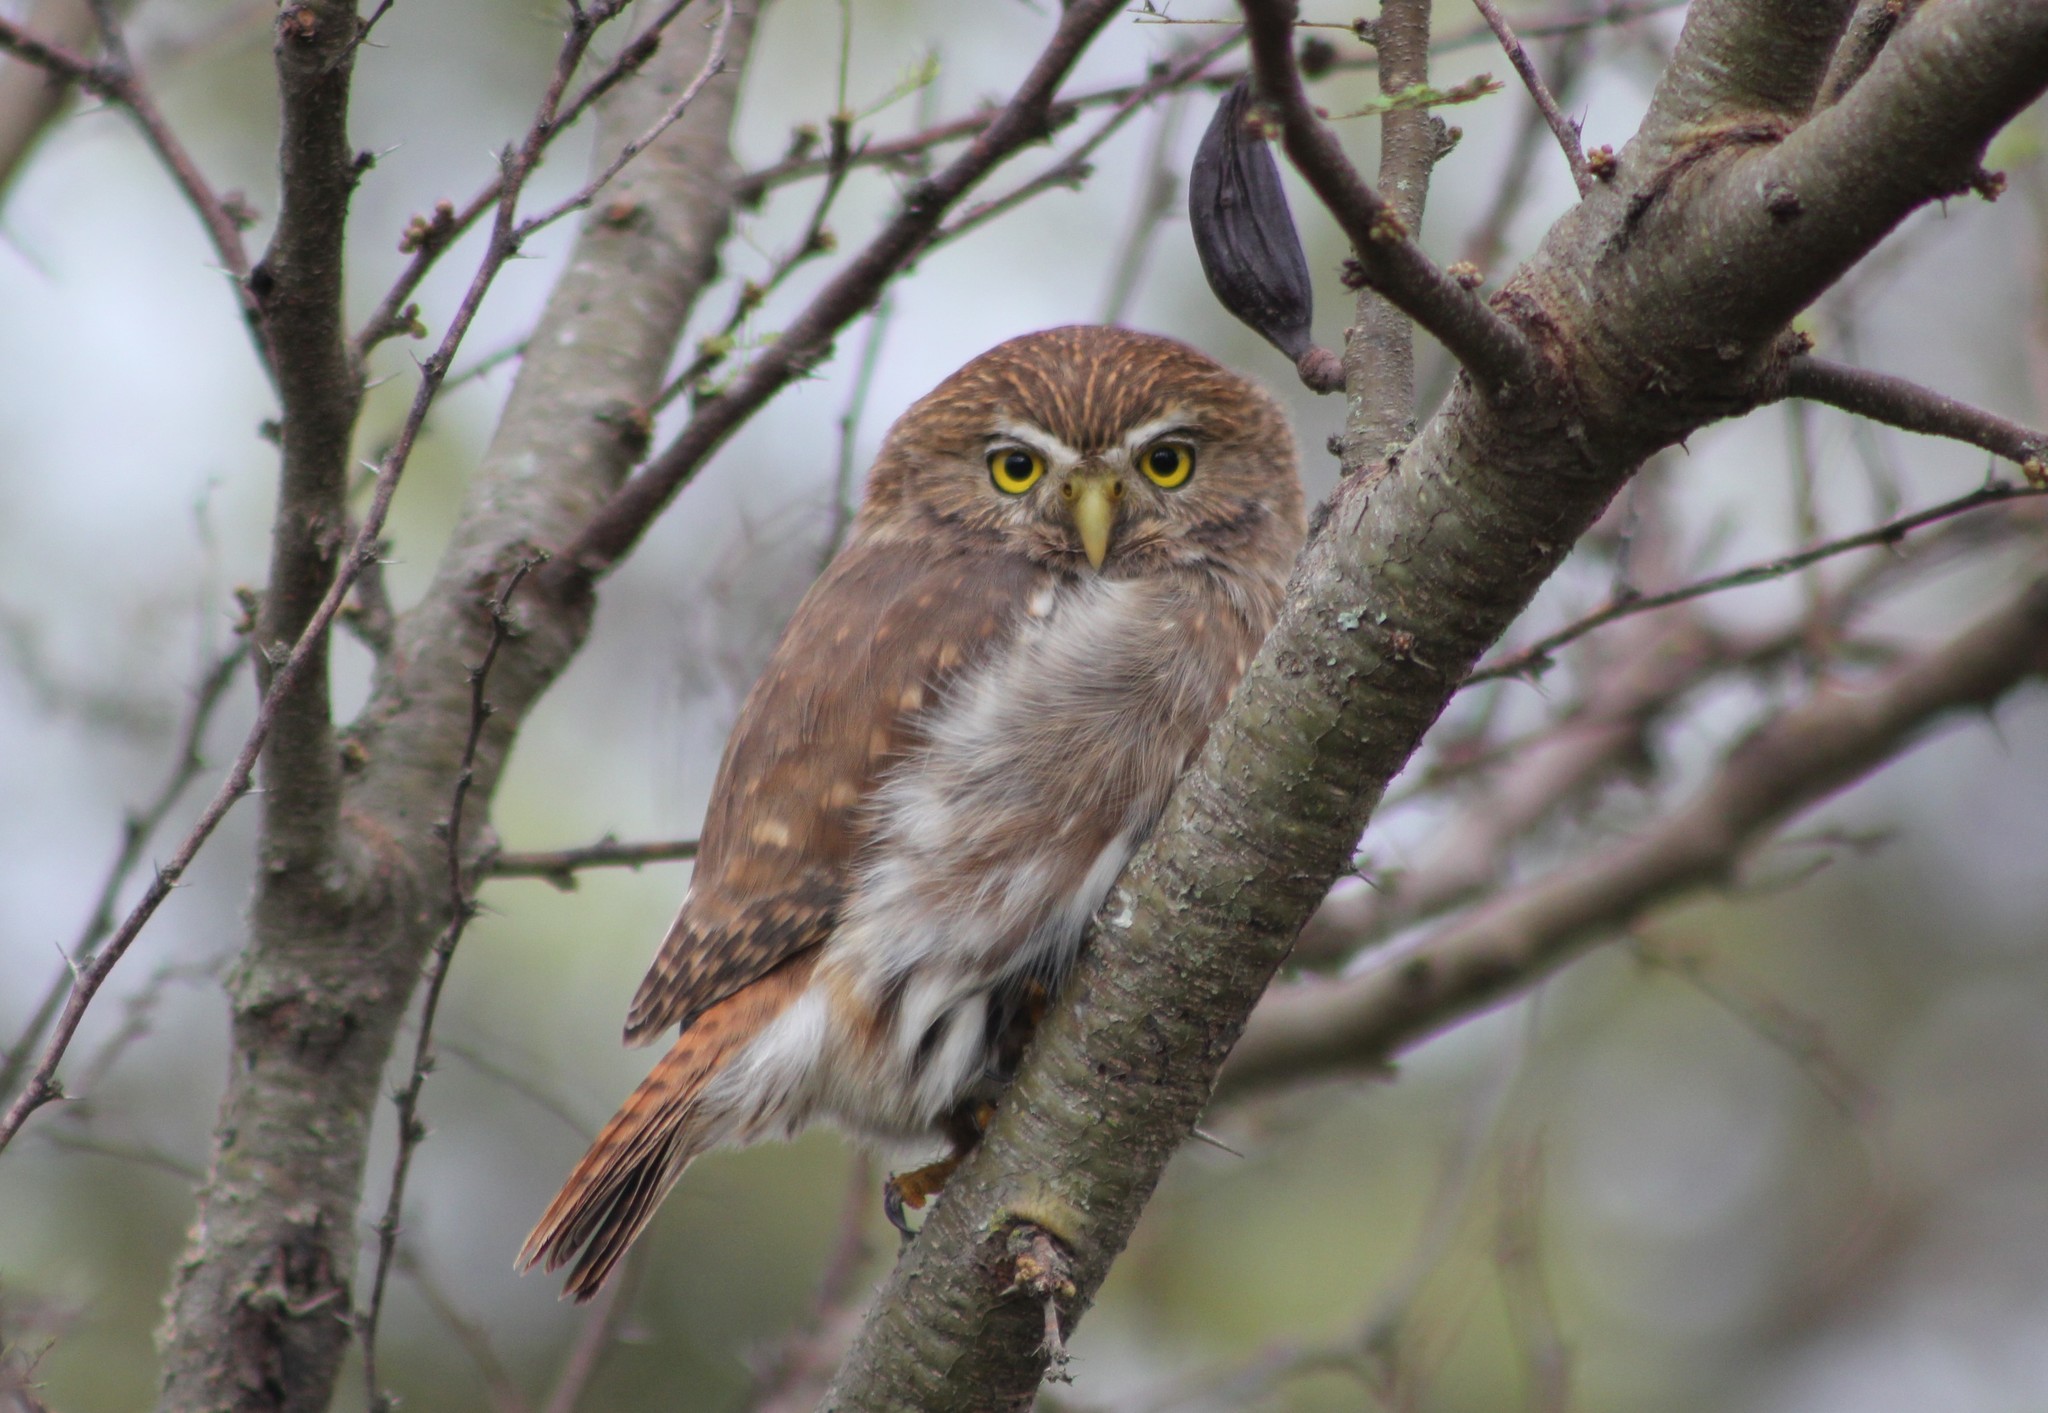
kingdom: Animalia
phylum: Chordata
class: Aves
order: Strigiformes
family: Strigidae
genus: Glaucidium
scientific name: Glaucidium brasilianum
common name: Ferruginous pygmy-owl
